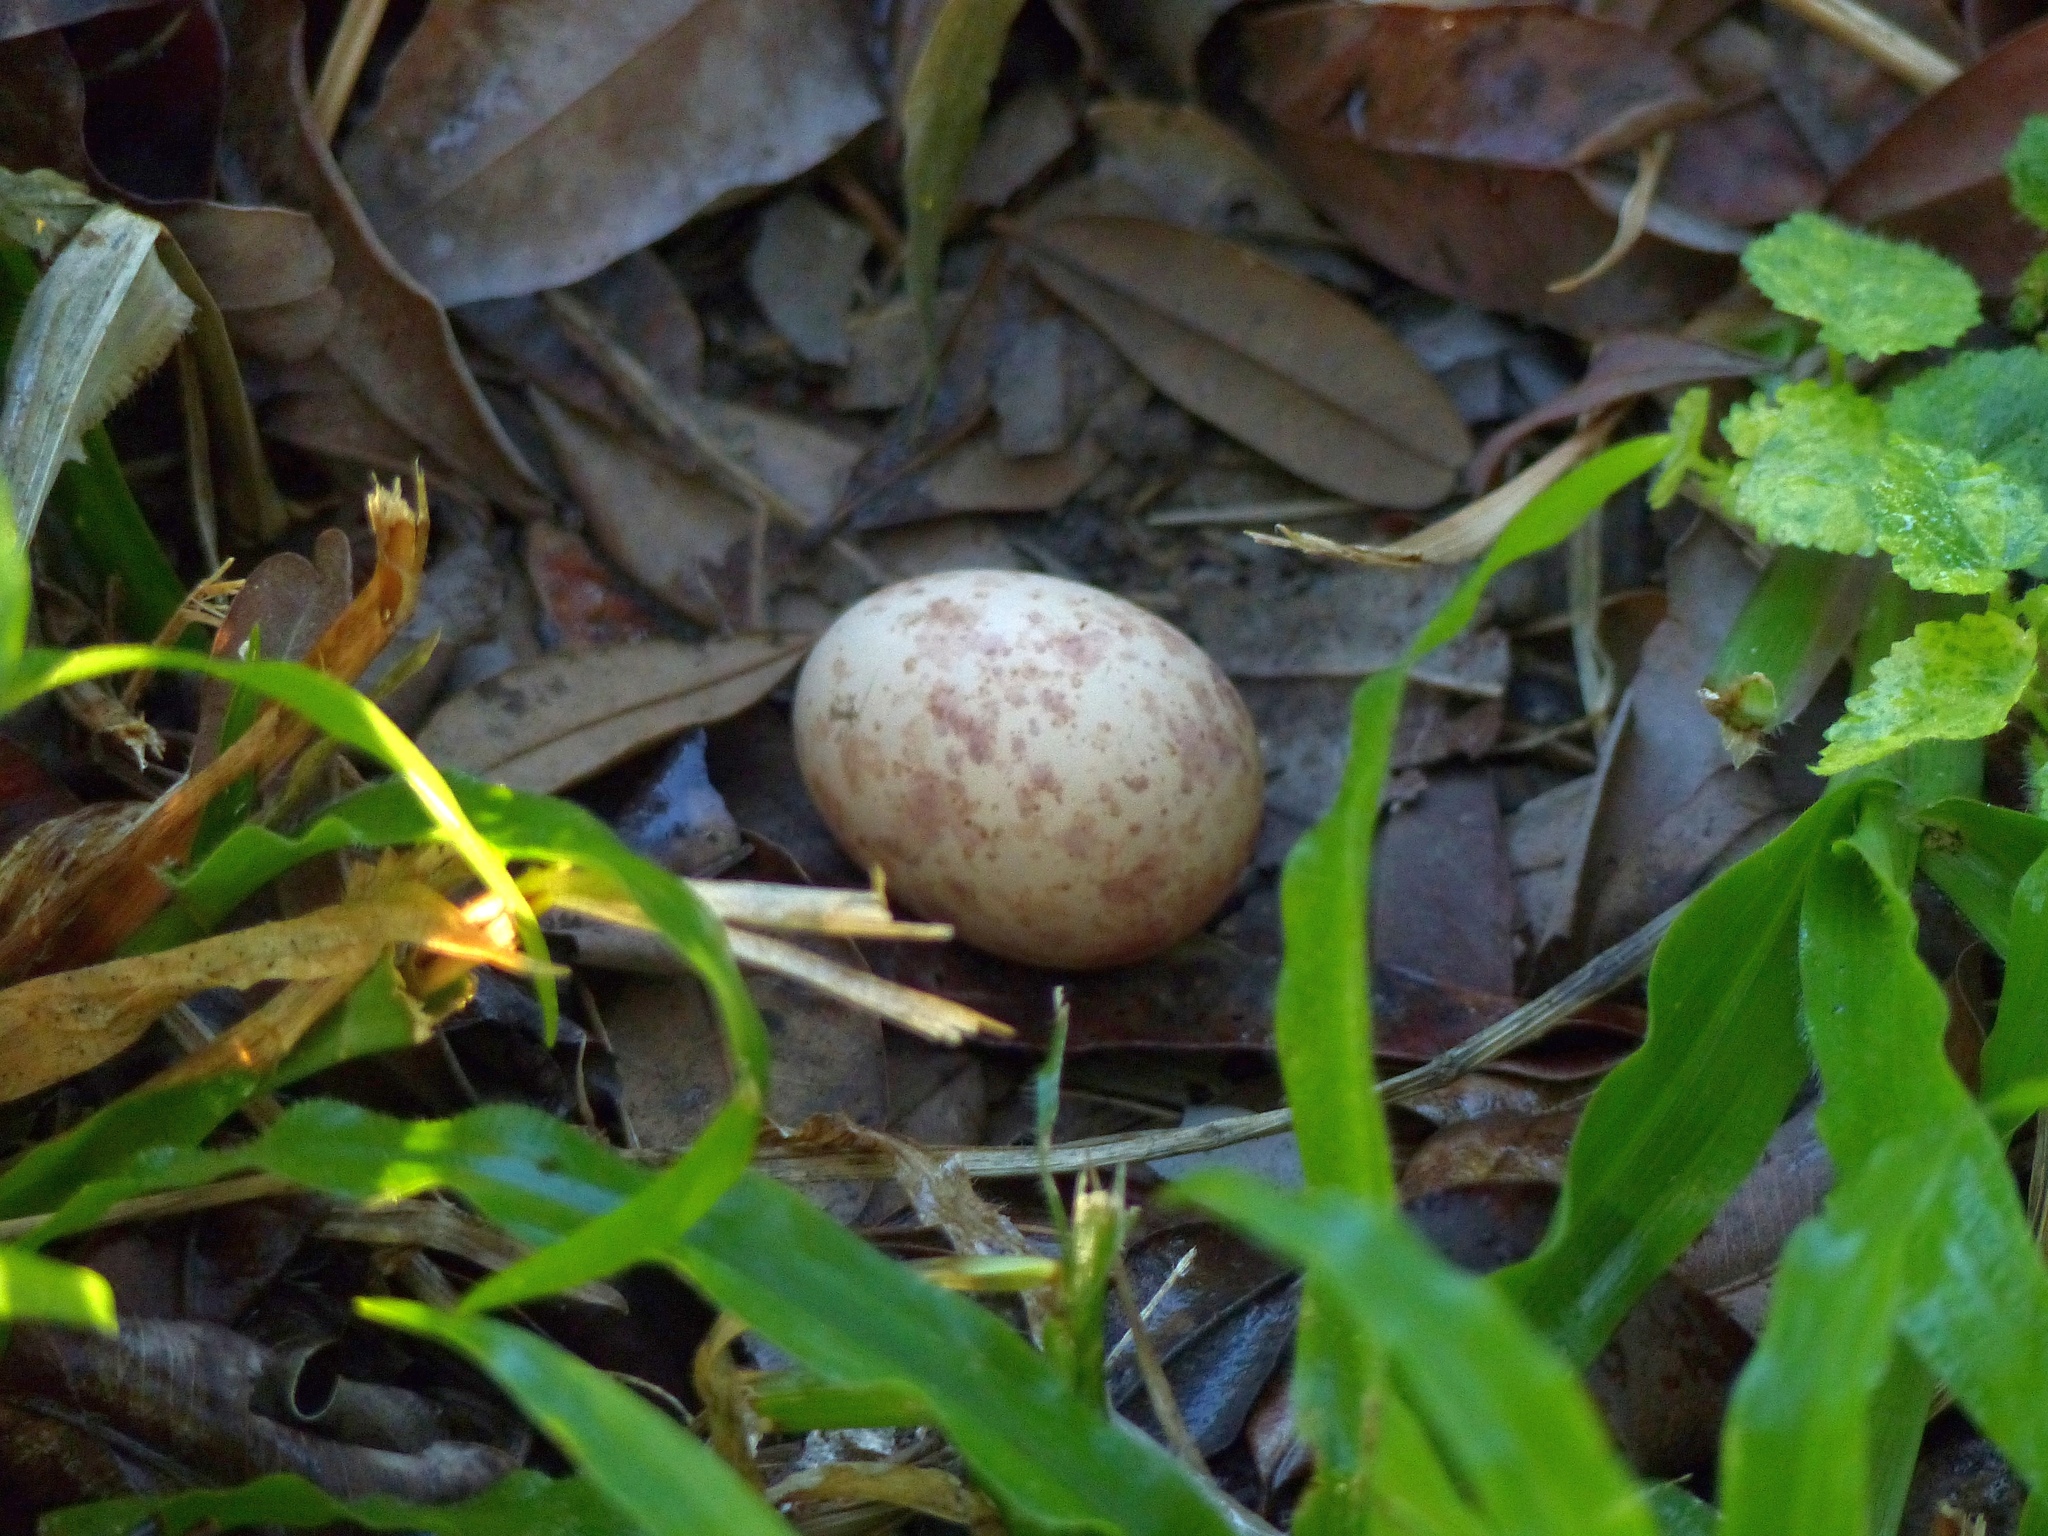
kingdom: Animalia
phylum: Chordata
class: Aves
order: Caprimulgiformes
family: Caprimulgidae
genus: Nyctidromus
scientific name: Nyctidromus albicollis
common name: Pauraque
